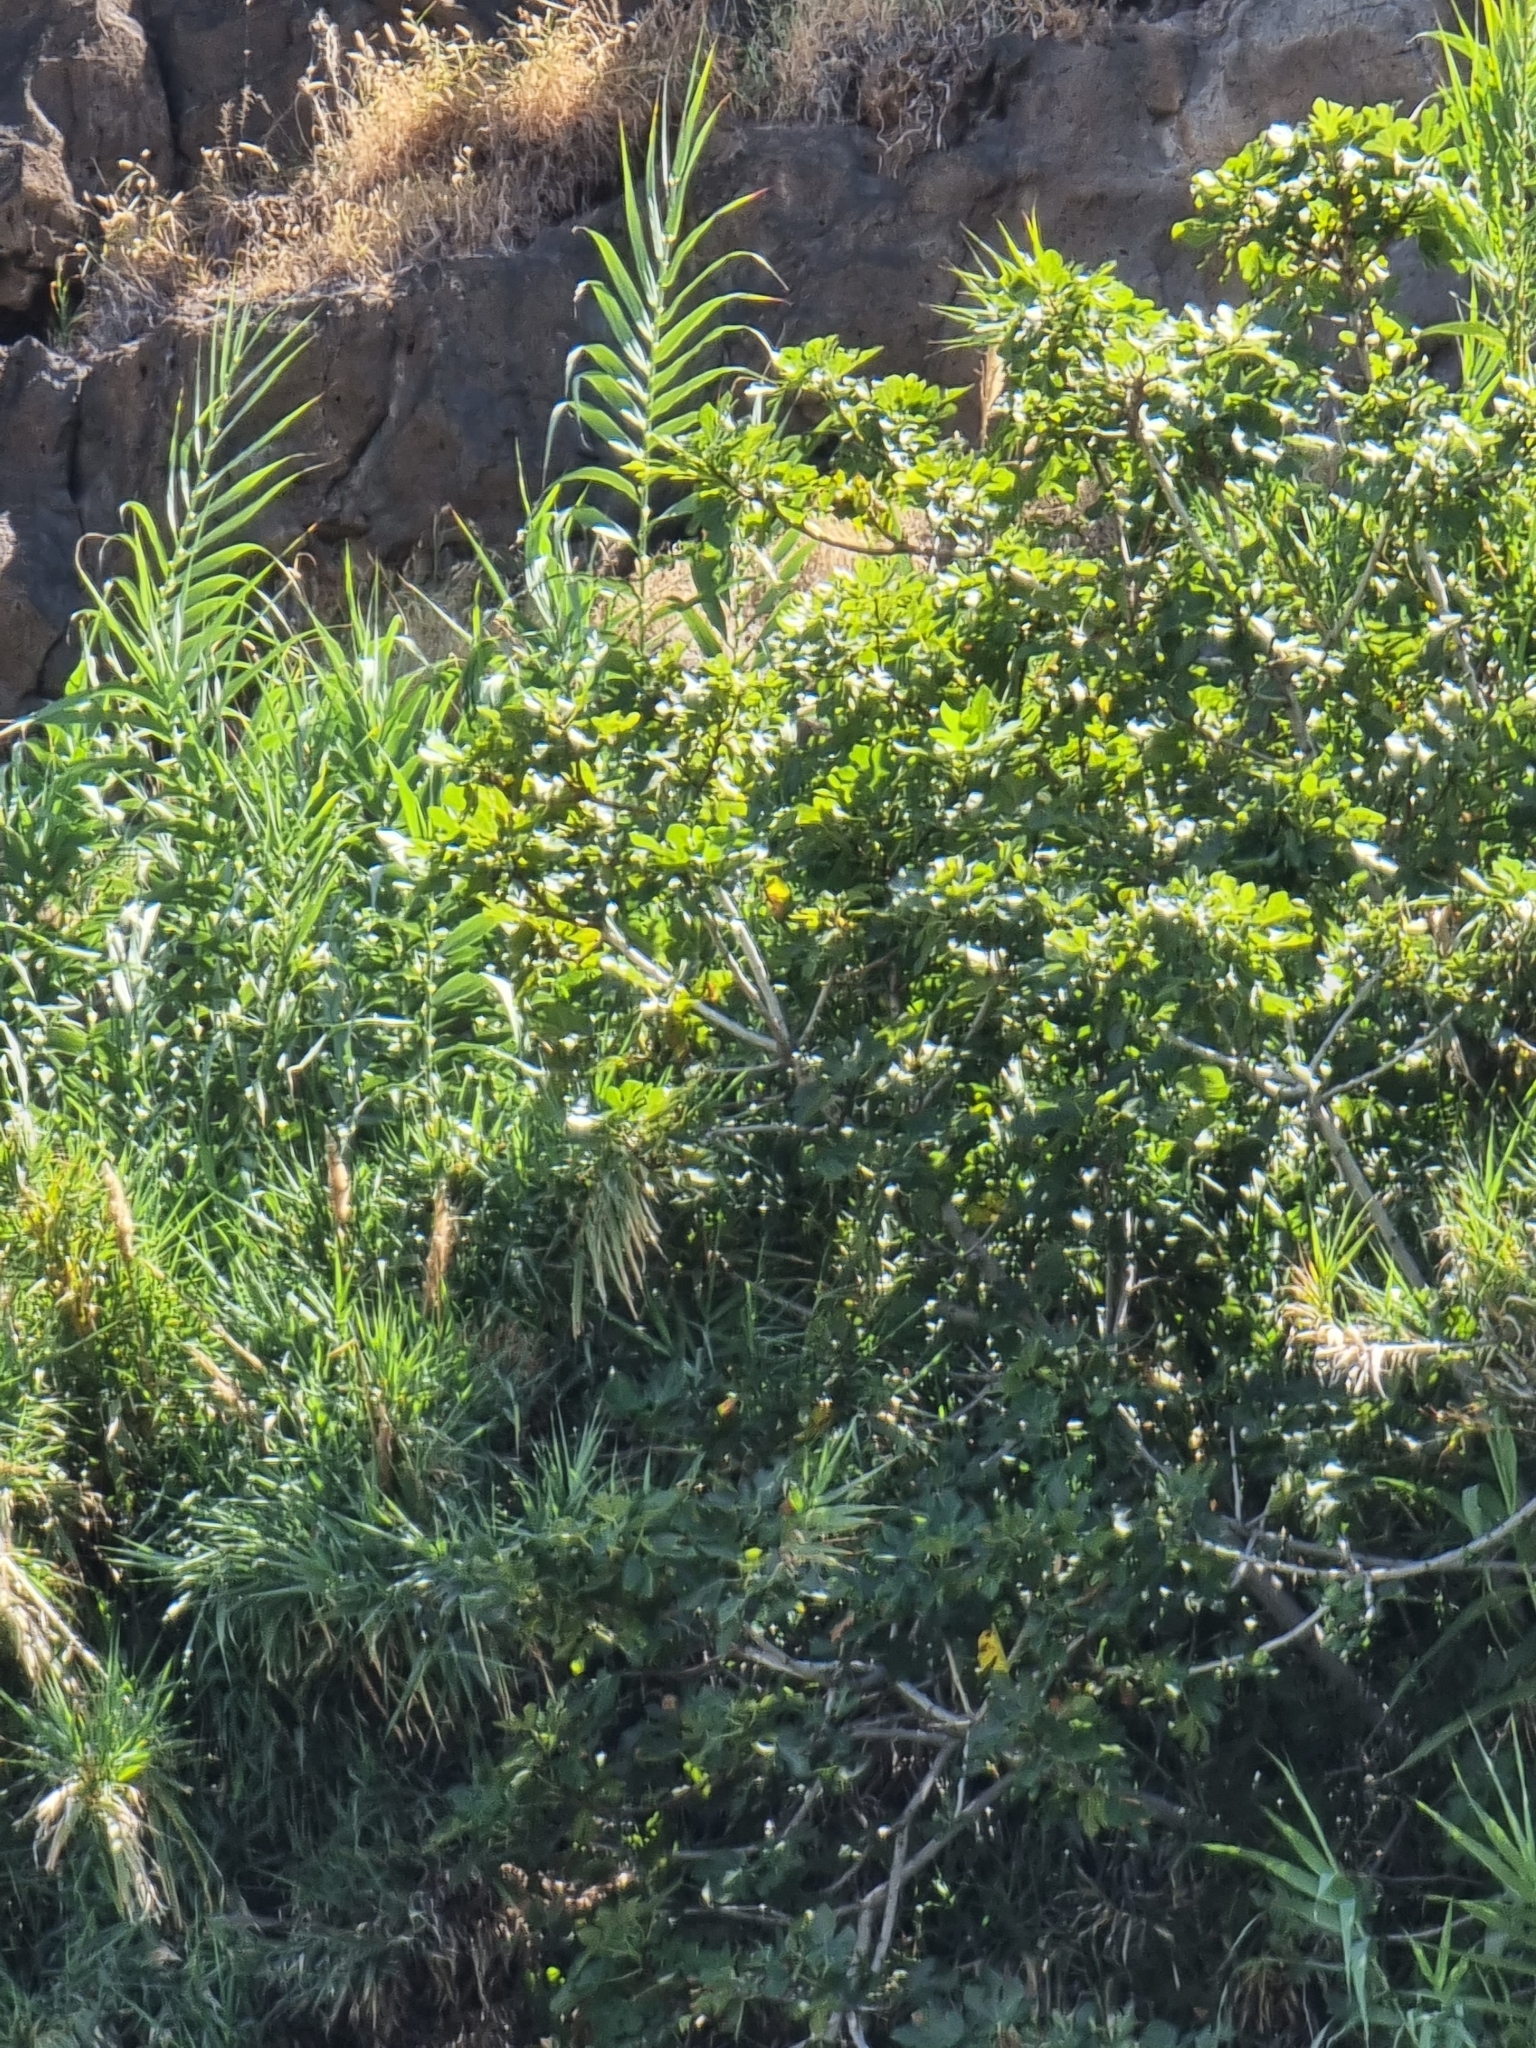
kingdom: Plantae
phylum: Tracheophyta
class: Magnoliopsida
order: Rosales
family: Moraceae
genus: Ficus
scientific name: Ficus carica
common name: Fig
